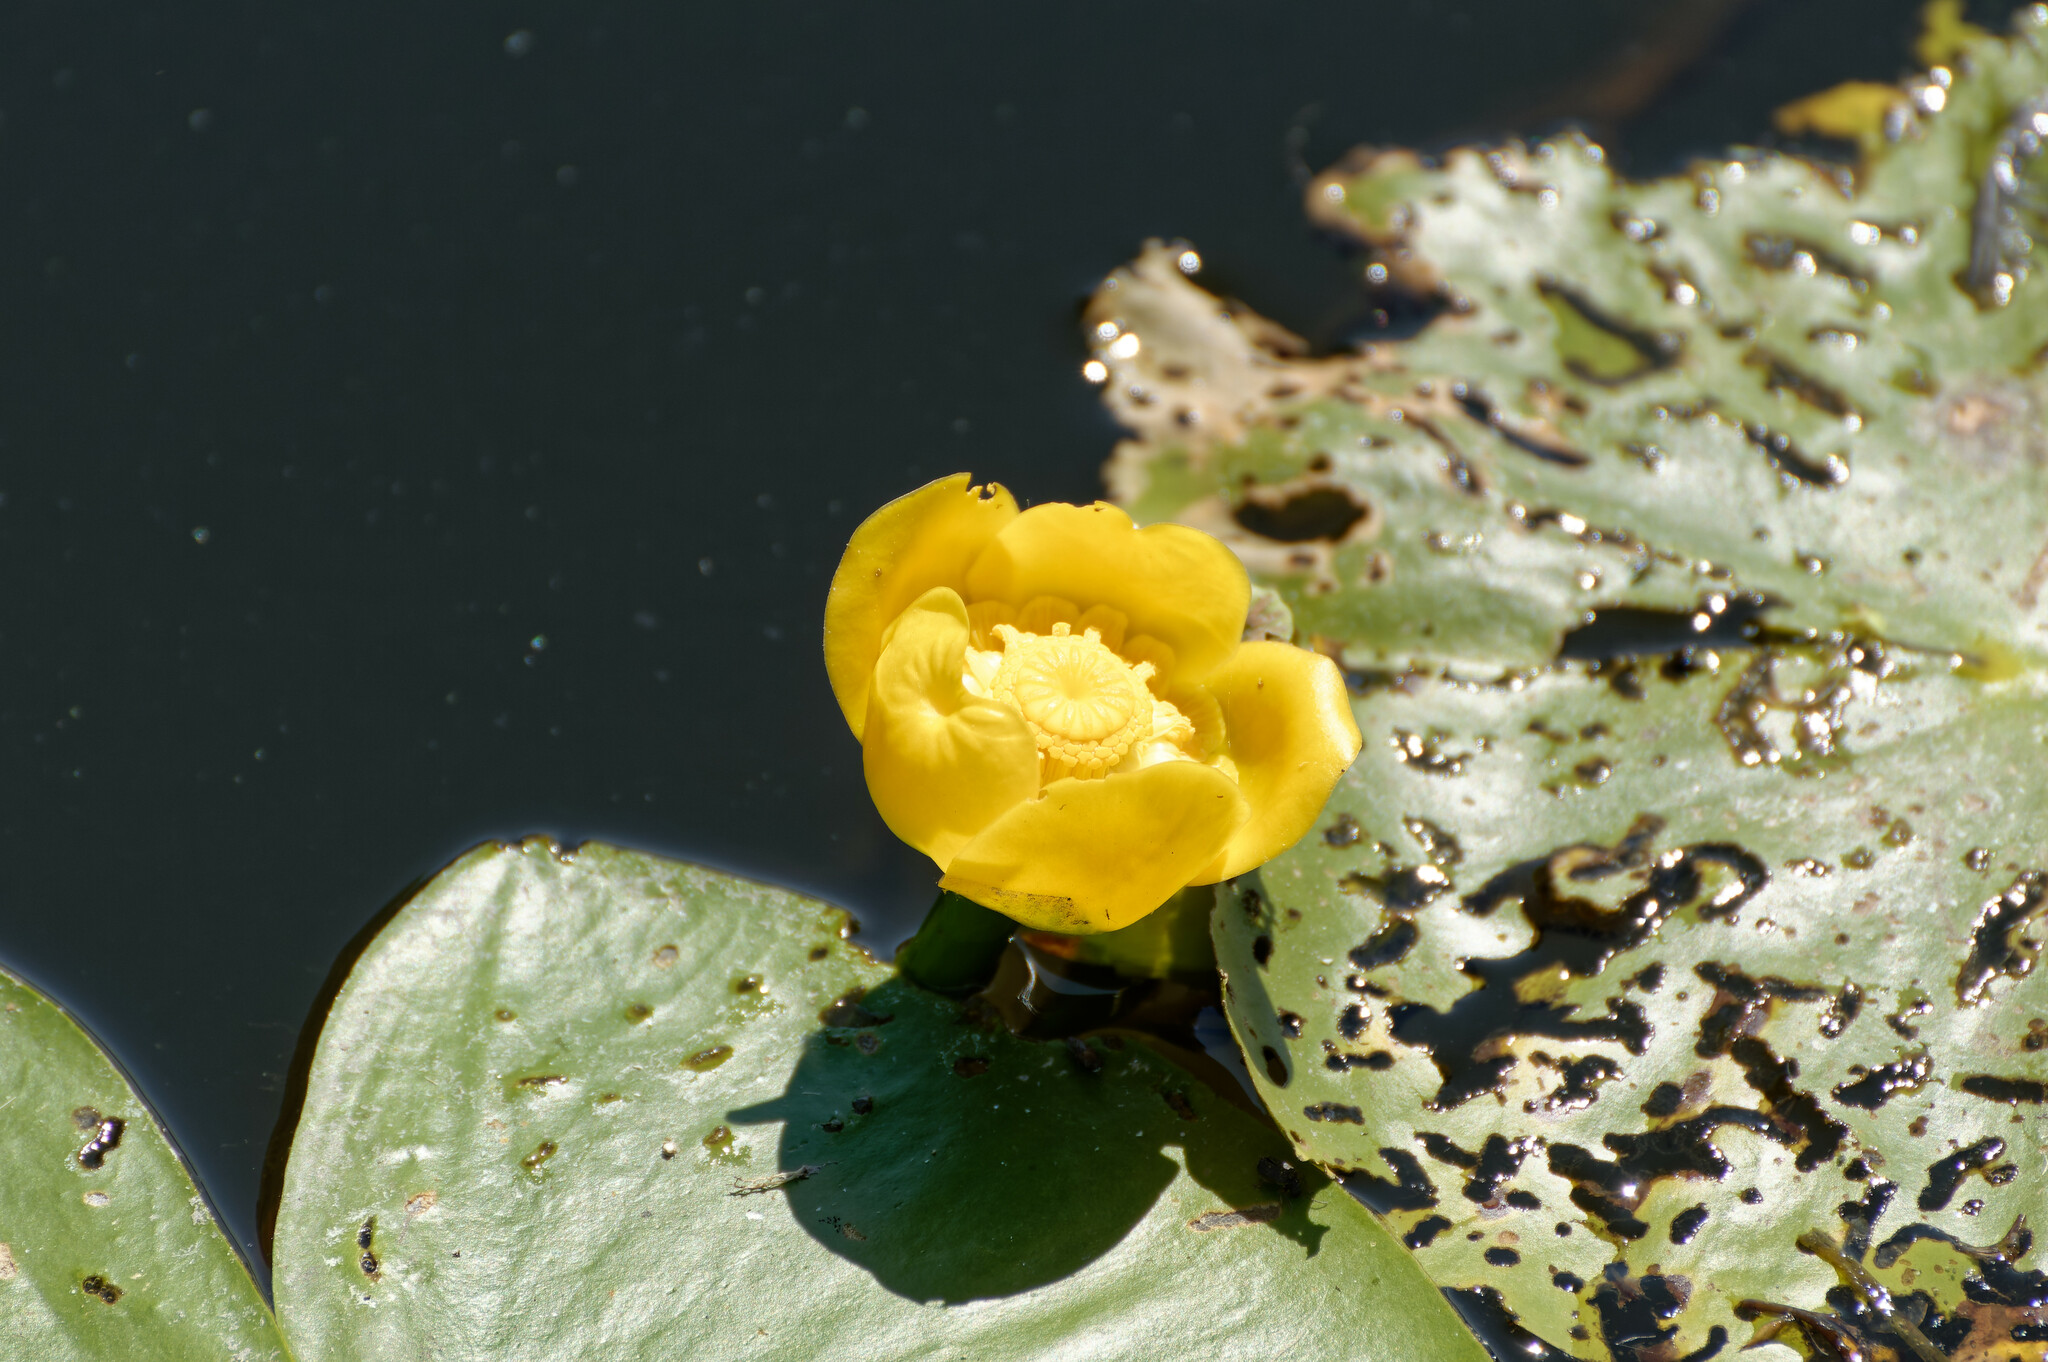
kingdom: Plantae
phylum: Tracheophyta
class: Magnoliopsida
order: Nymphaeales
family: Nymphaeaceae
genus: Nuphar
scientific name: Nuphar lutea
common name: Yellow water-lily
